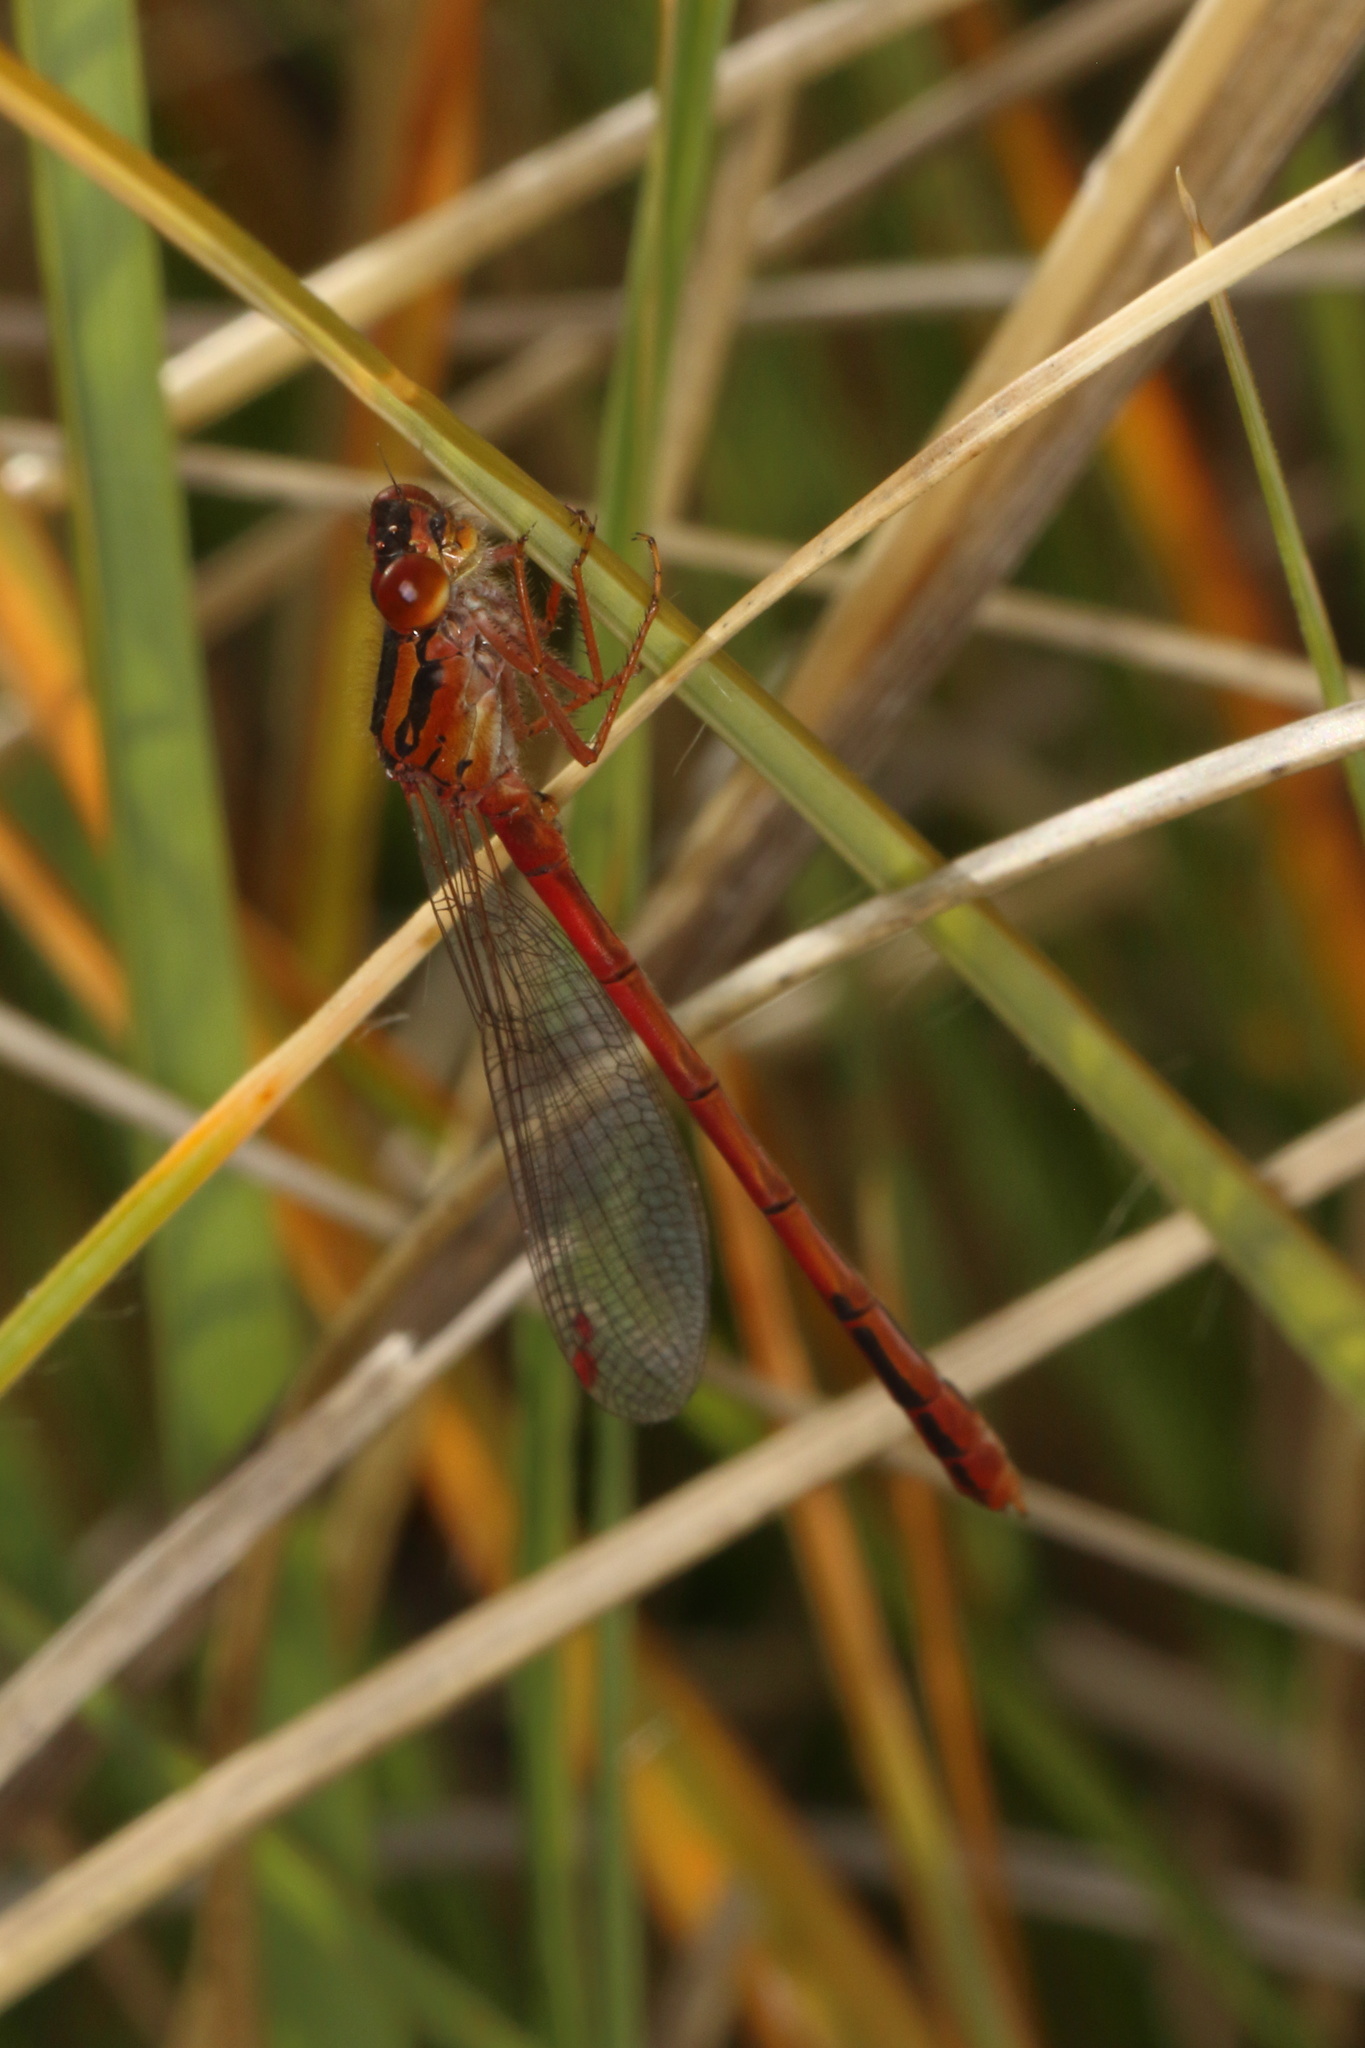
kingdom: Animalia
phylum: Arthropoda
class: Insecta
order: Odonata
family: Coenagrionidae
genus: Xanthocnemis
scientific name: Xanthocnemis zealandica
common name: Common redcoat damselfly
